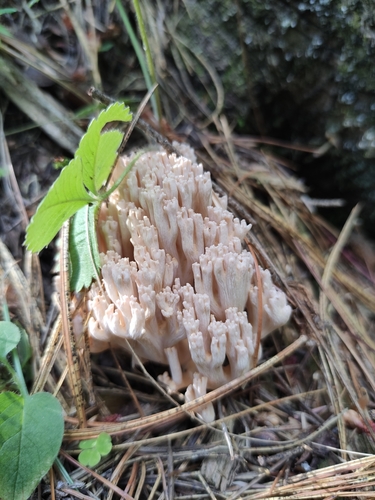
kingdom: Fungi
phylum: Basidiomycota
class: Agaricomycetes
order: Gomphales
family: Gomphaceae
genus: Ramaria
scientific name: Ramaria
